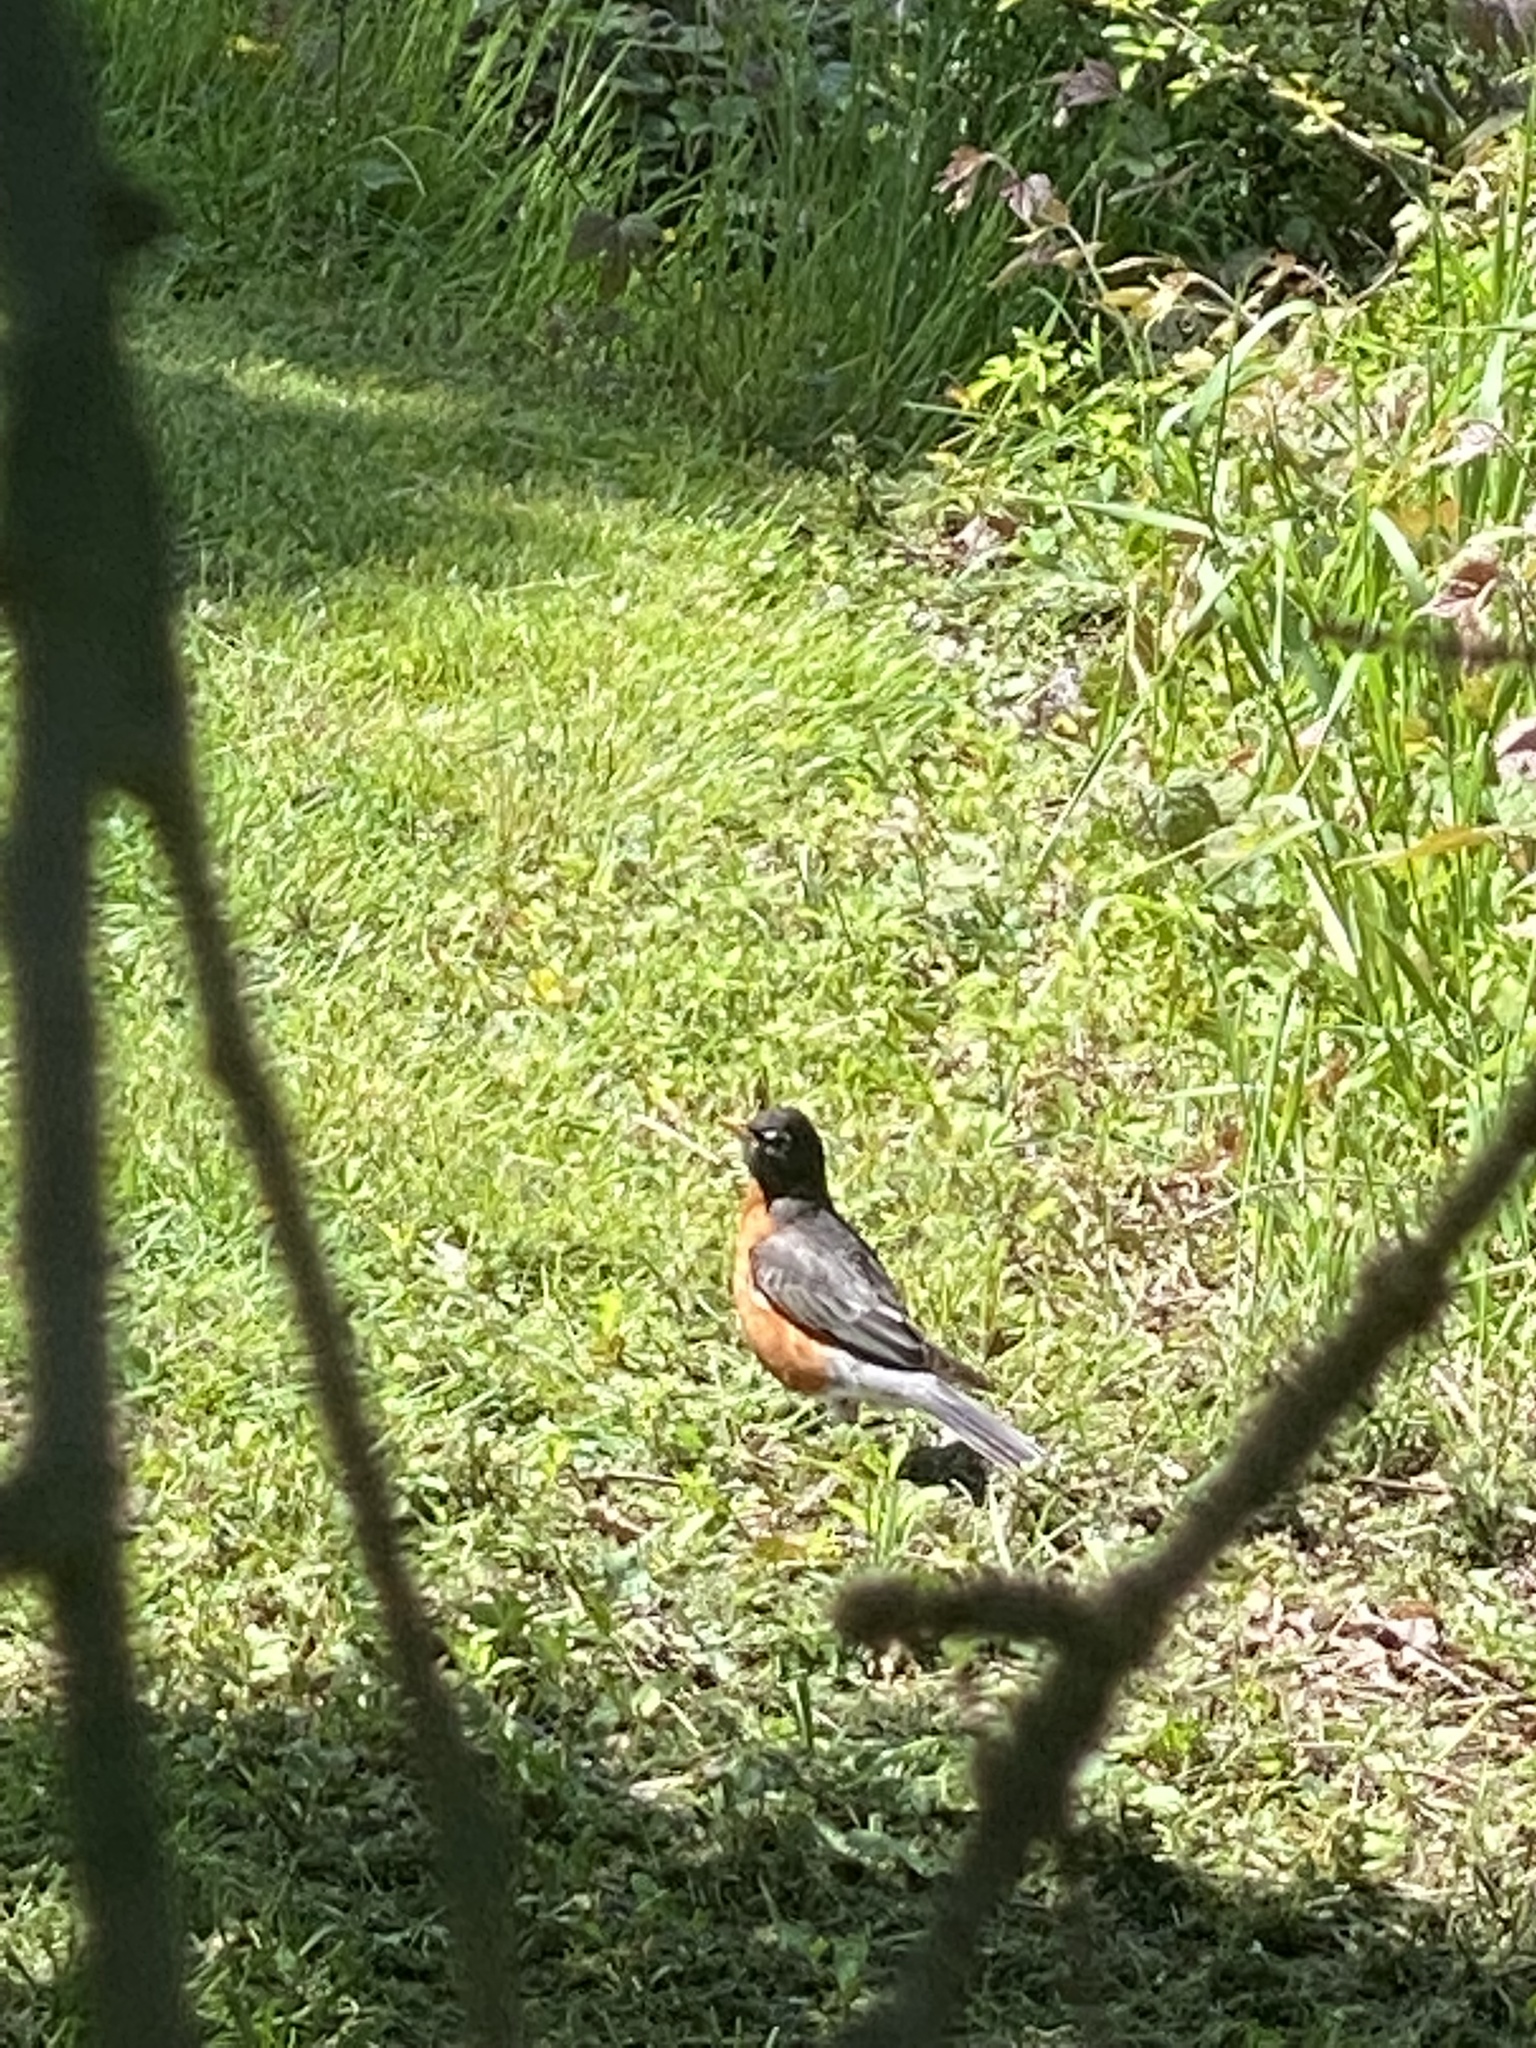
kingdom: Animalia
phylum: Chordata
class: Aves
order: Passeriformes
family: Turdidae
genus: Turdus
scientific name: Turdus migratorius
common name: American robin
